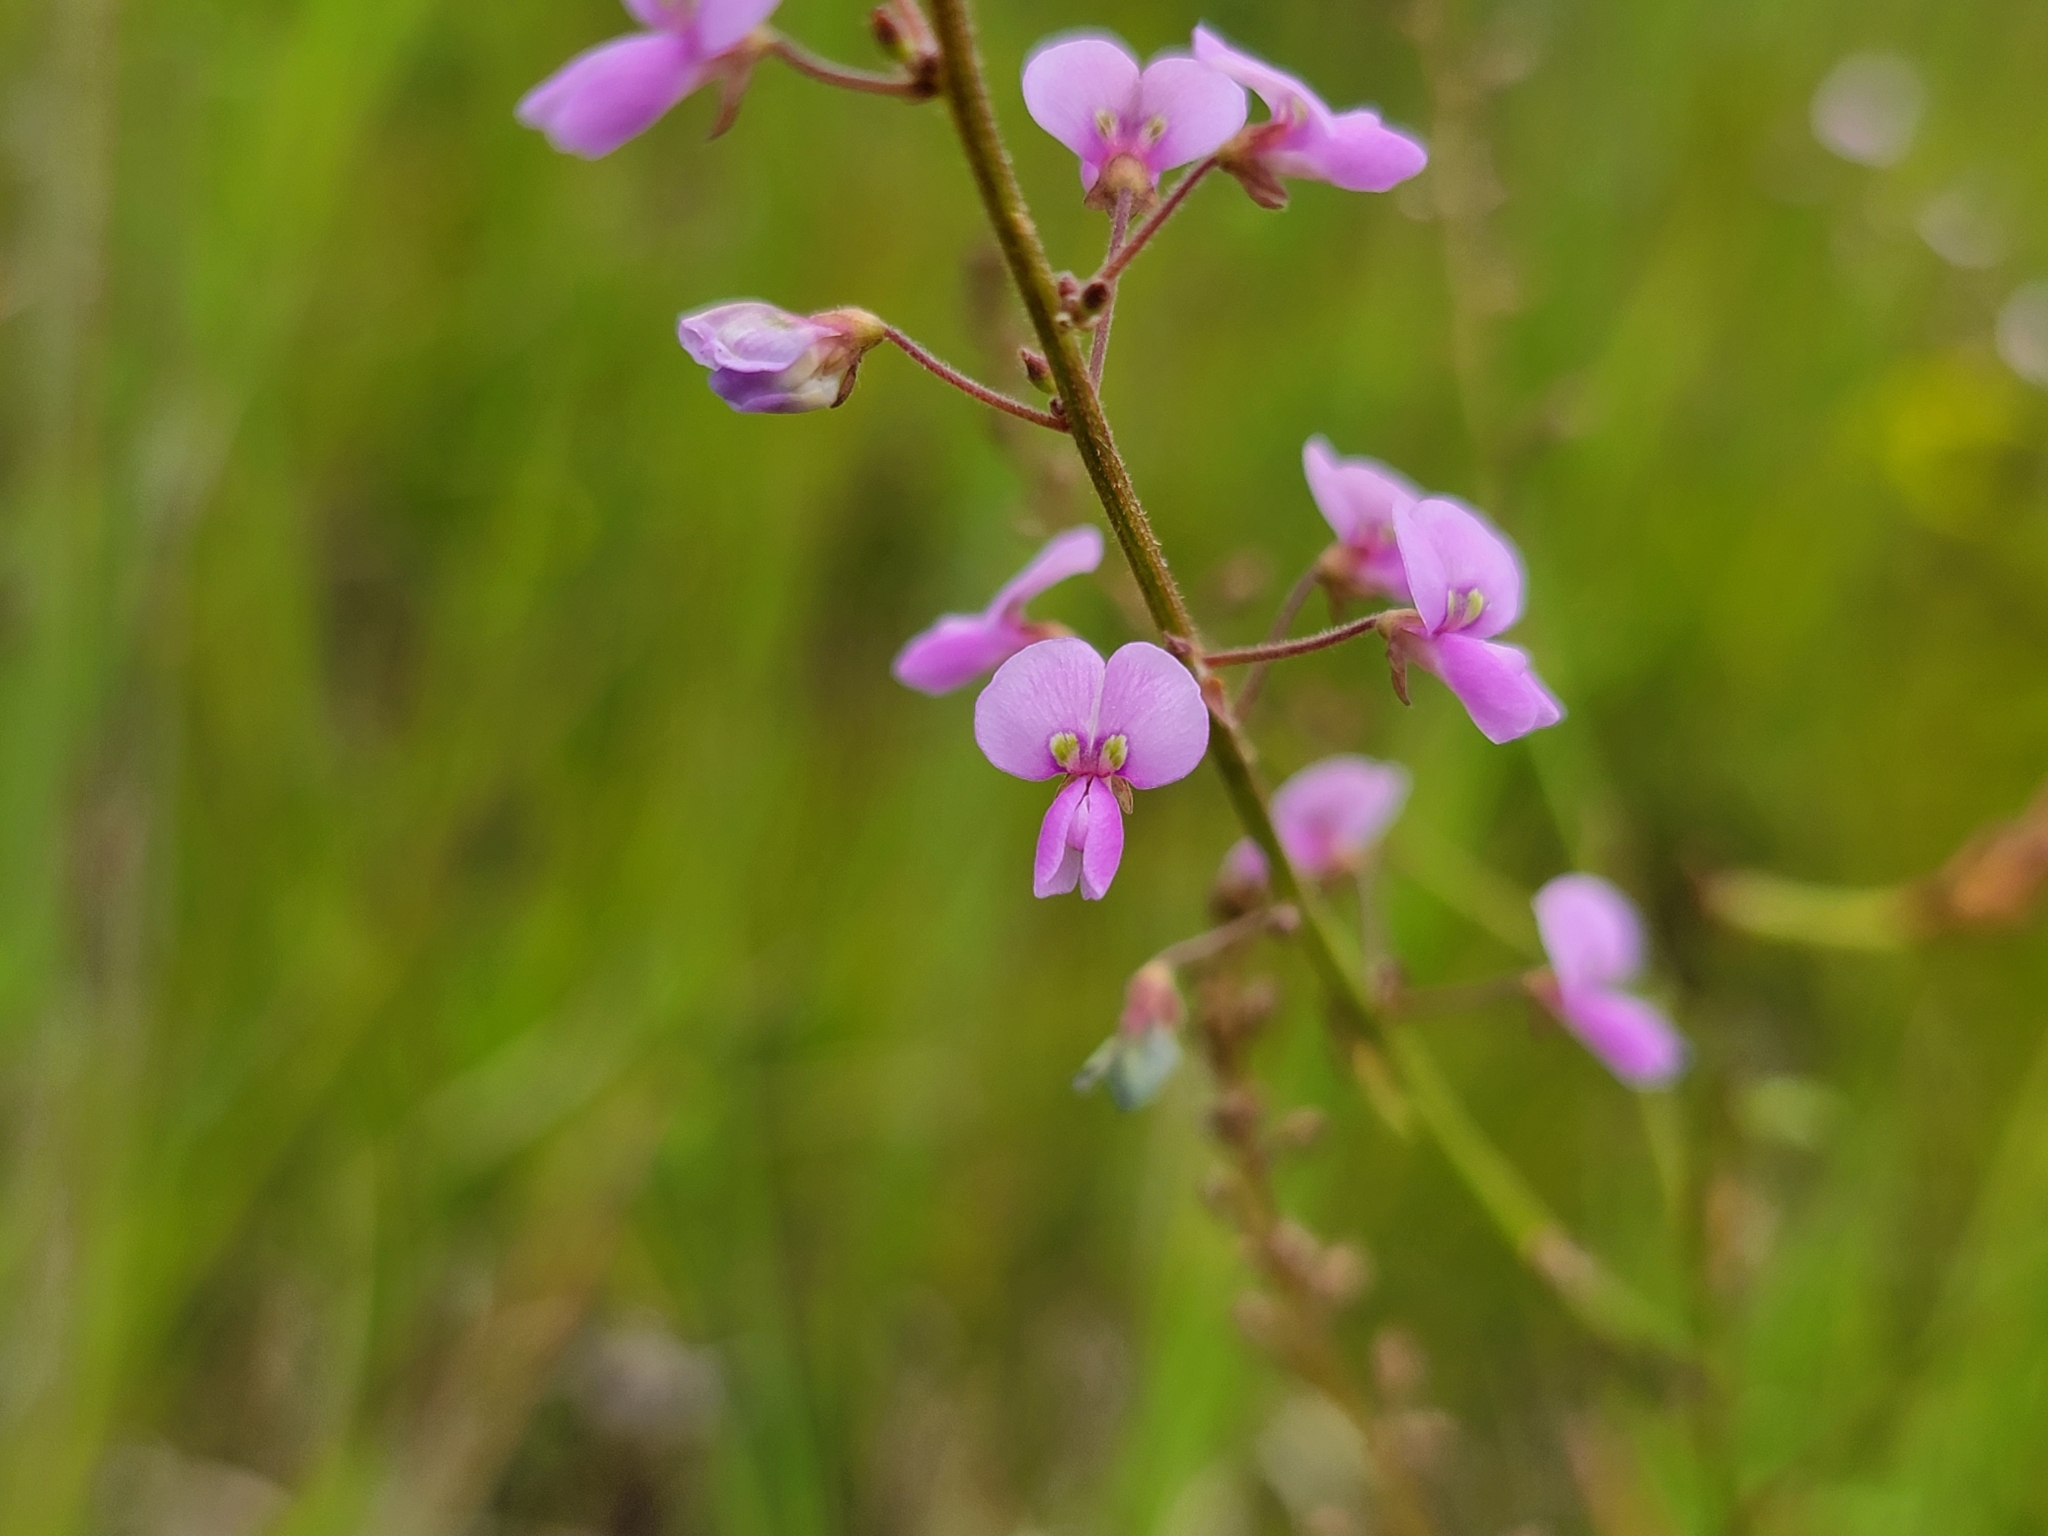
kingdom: Plantae
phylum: Tracheophyta
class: Magnoliopsida
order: Fabales
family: Fabaceae
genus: Desmodium
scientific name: Desmodium ciliare
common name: Hairy small-leaf ticktrefoil
